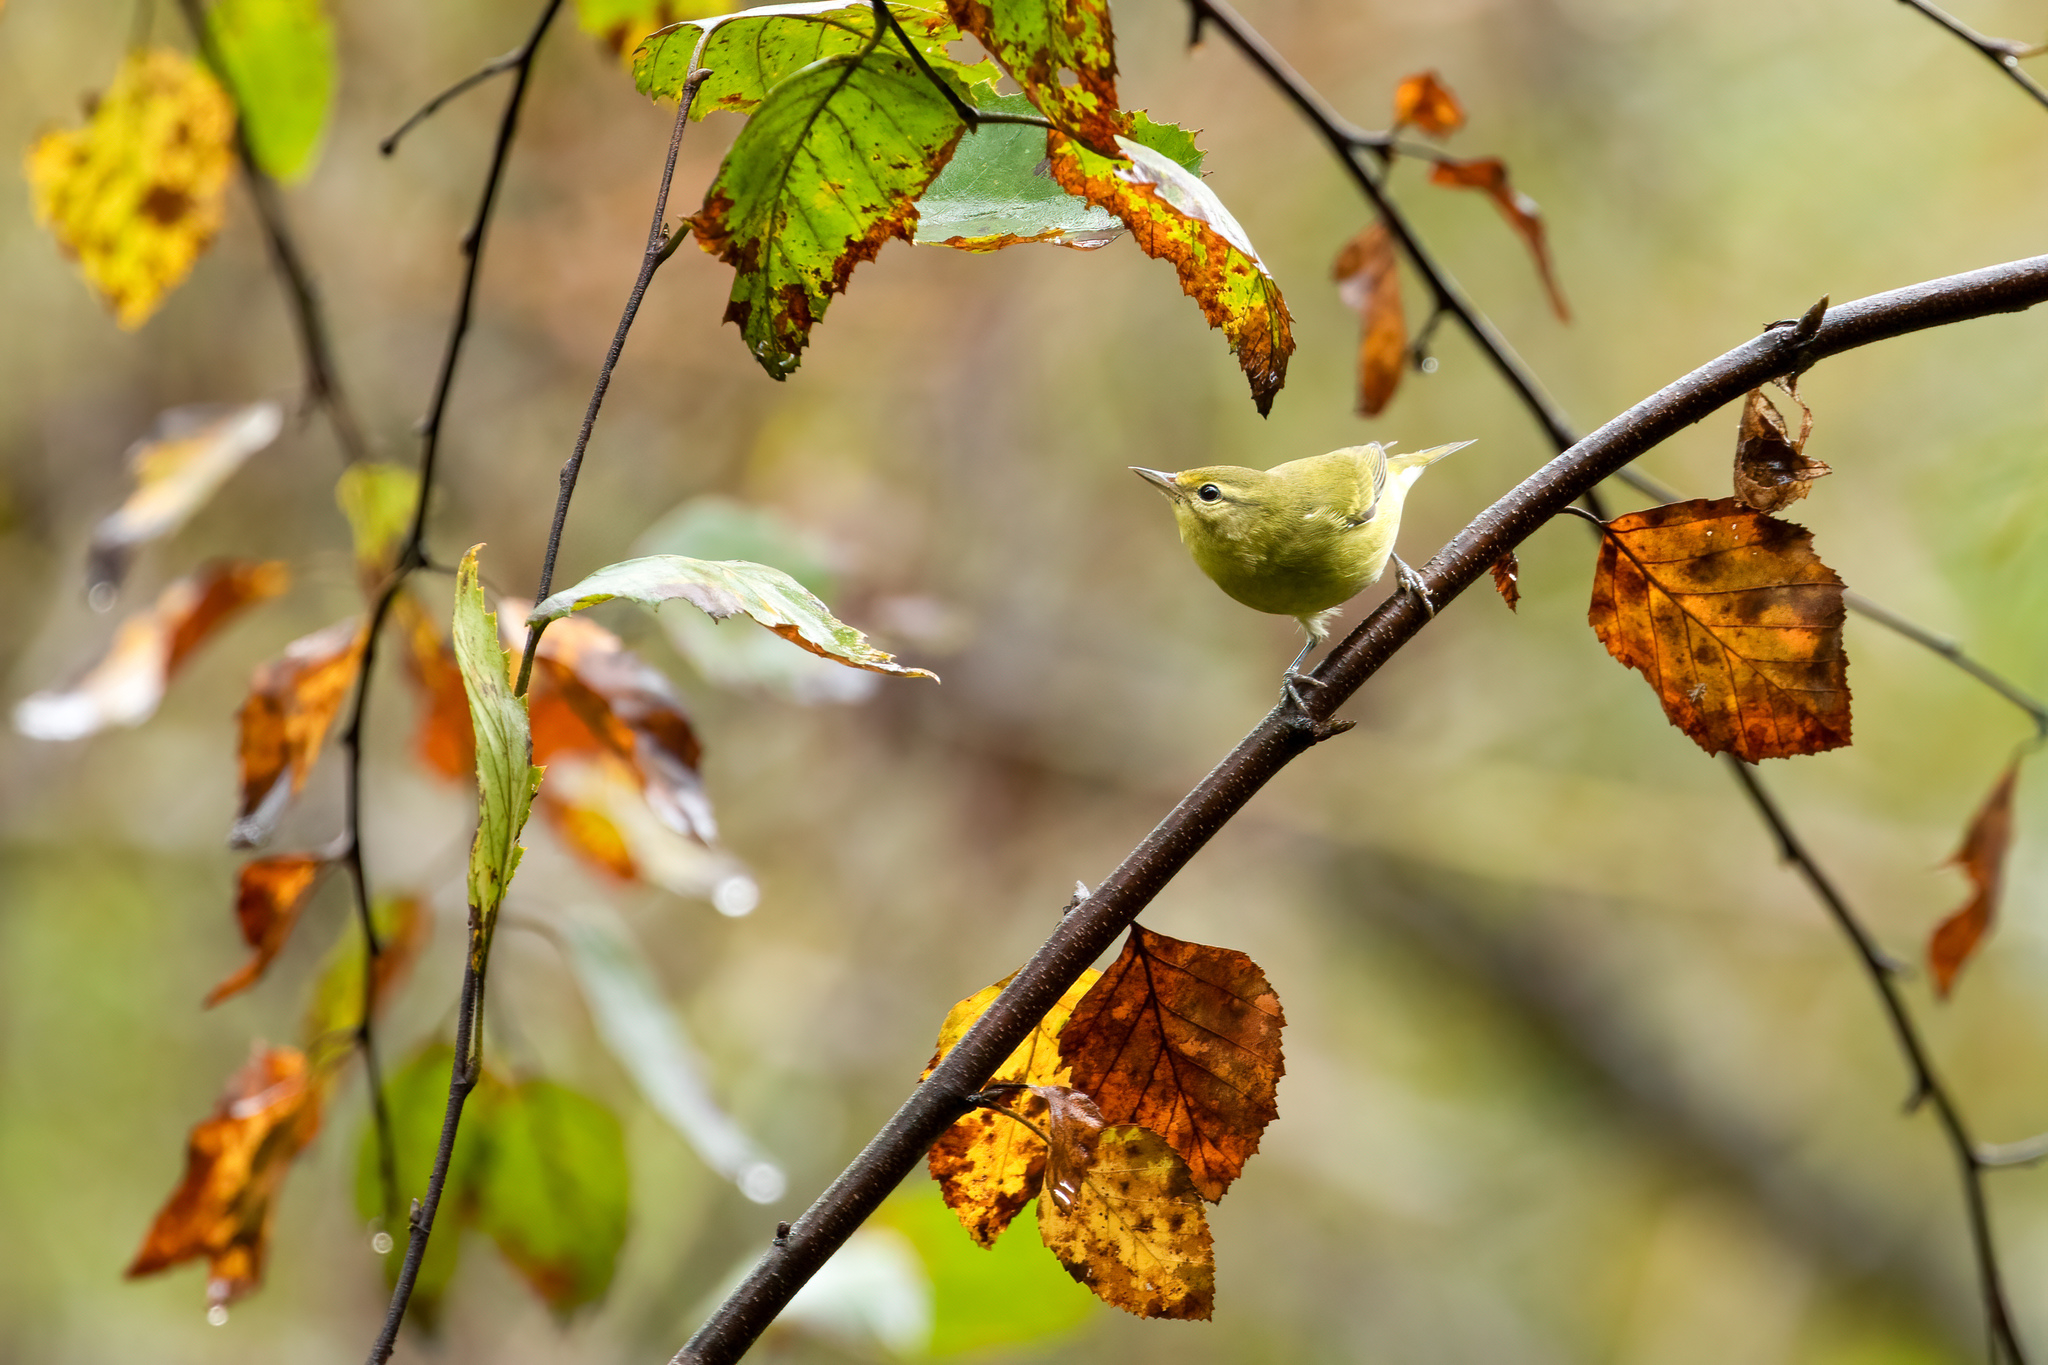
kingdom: Animalia
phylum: Chordata
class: Aves
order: Passeriformes
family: Parulidae
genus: Leiothlypis
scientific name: Leiothlypis peregrina
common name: Tennessee warbler
